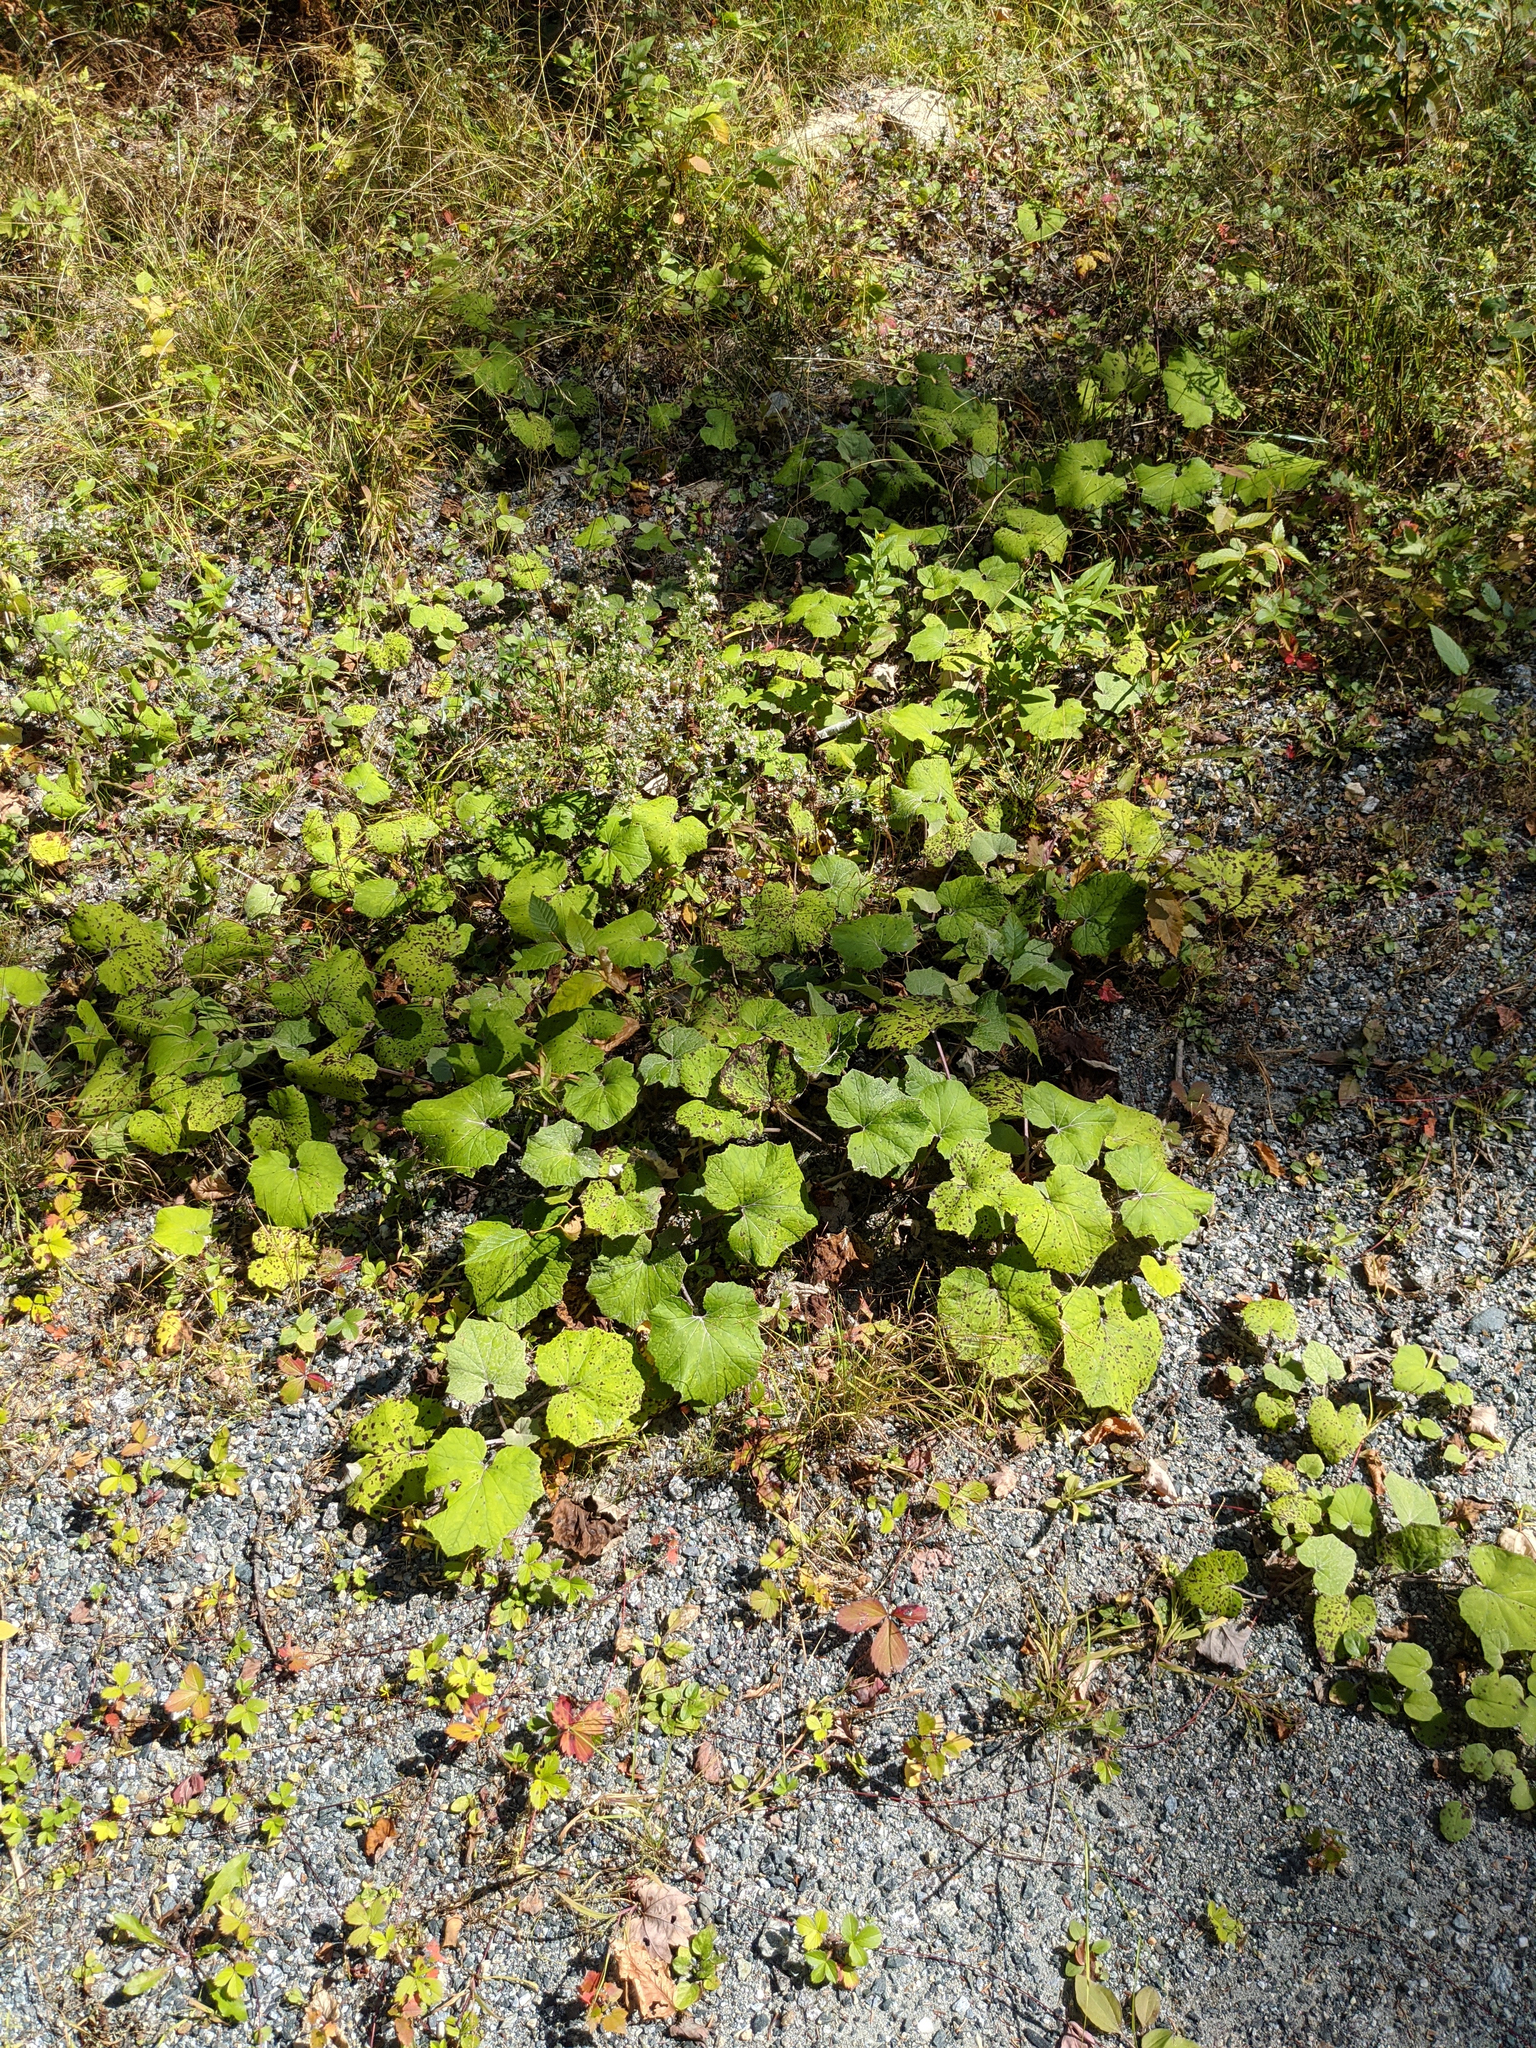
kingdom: Plantae
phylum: Tracheophyta
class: Magnoliopsida
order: Asterales
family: Asteraceae
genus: Tussilago
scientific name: Tussilago farfara
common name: Coltsfoot
